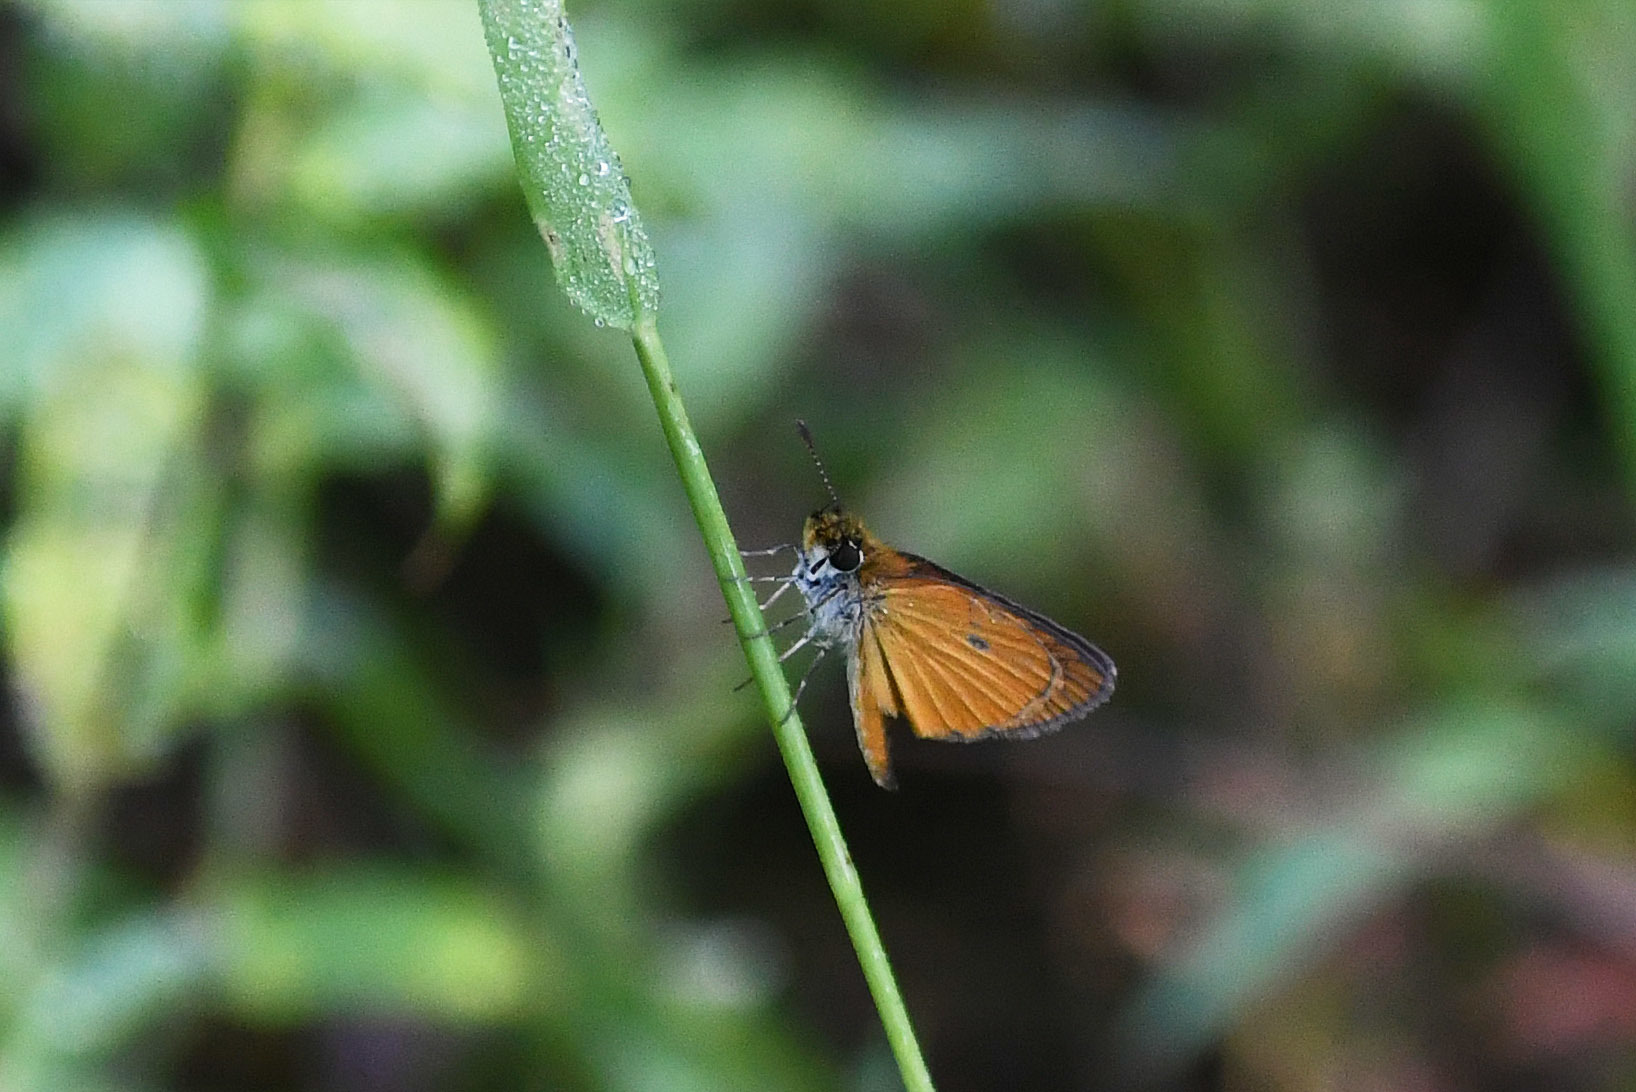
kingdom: Animalia
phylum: Arthropoda
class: Insecta
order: Lepidoptera
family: Hesperiidae
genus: Ancyloxypha
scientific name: Ancyloxypha numitor
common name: Least skipper
